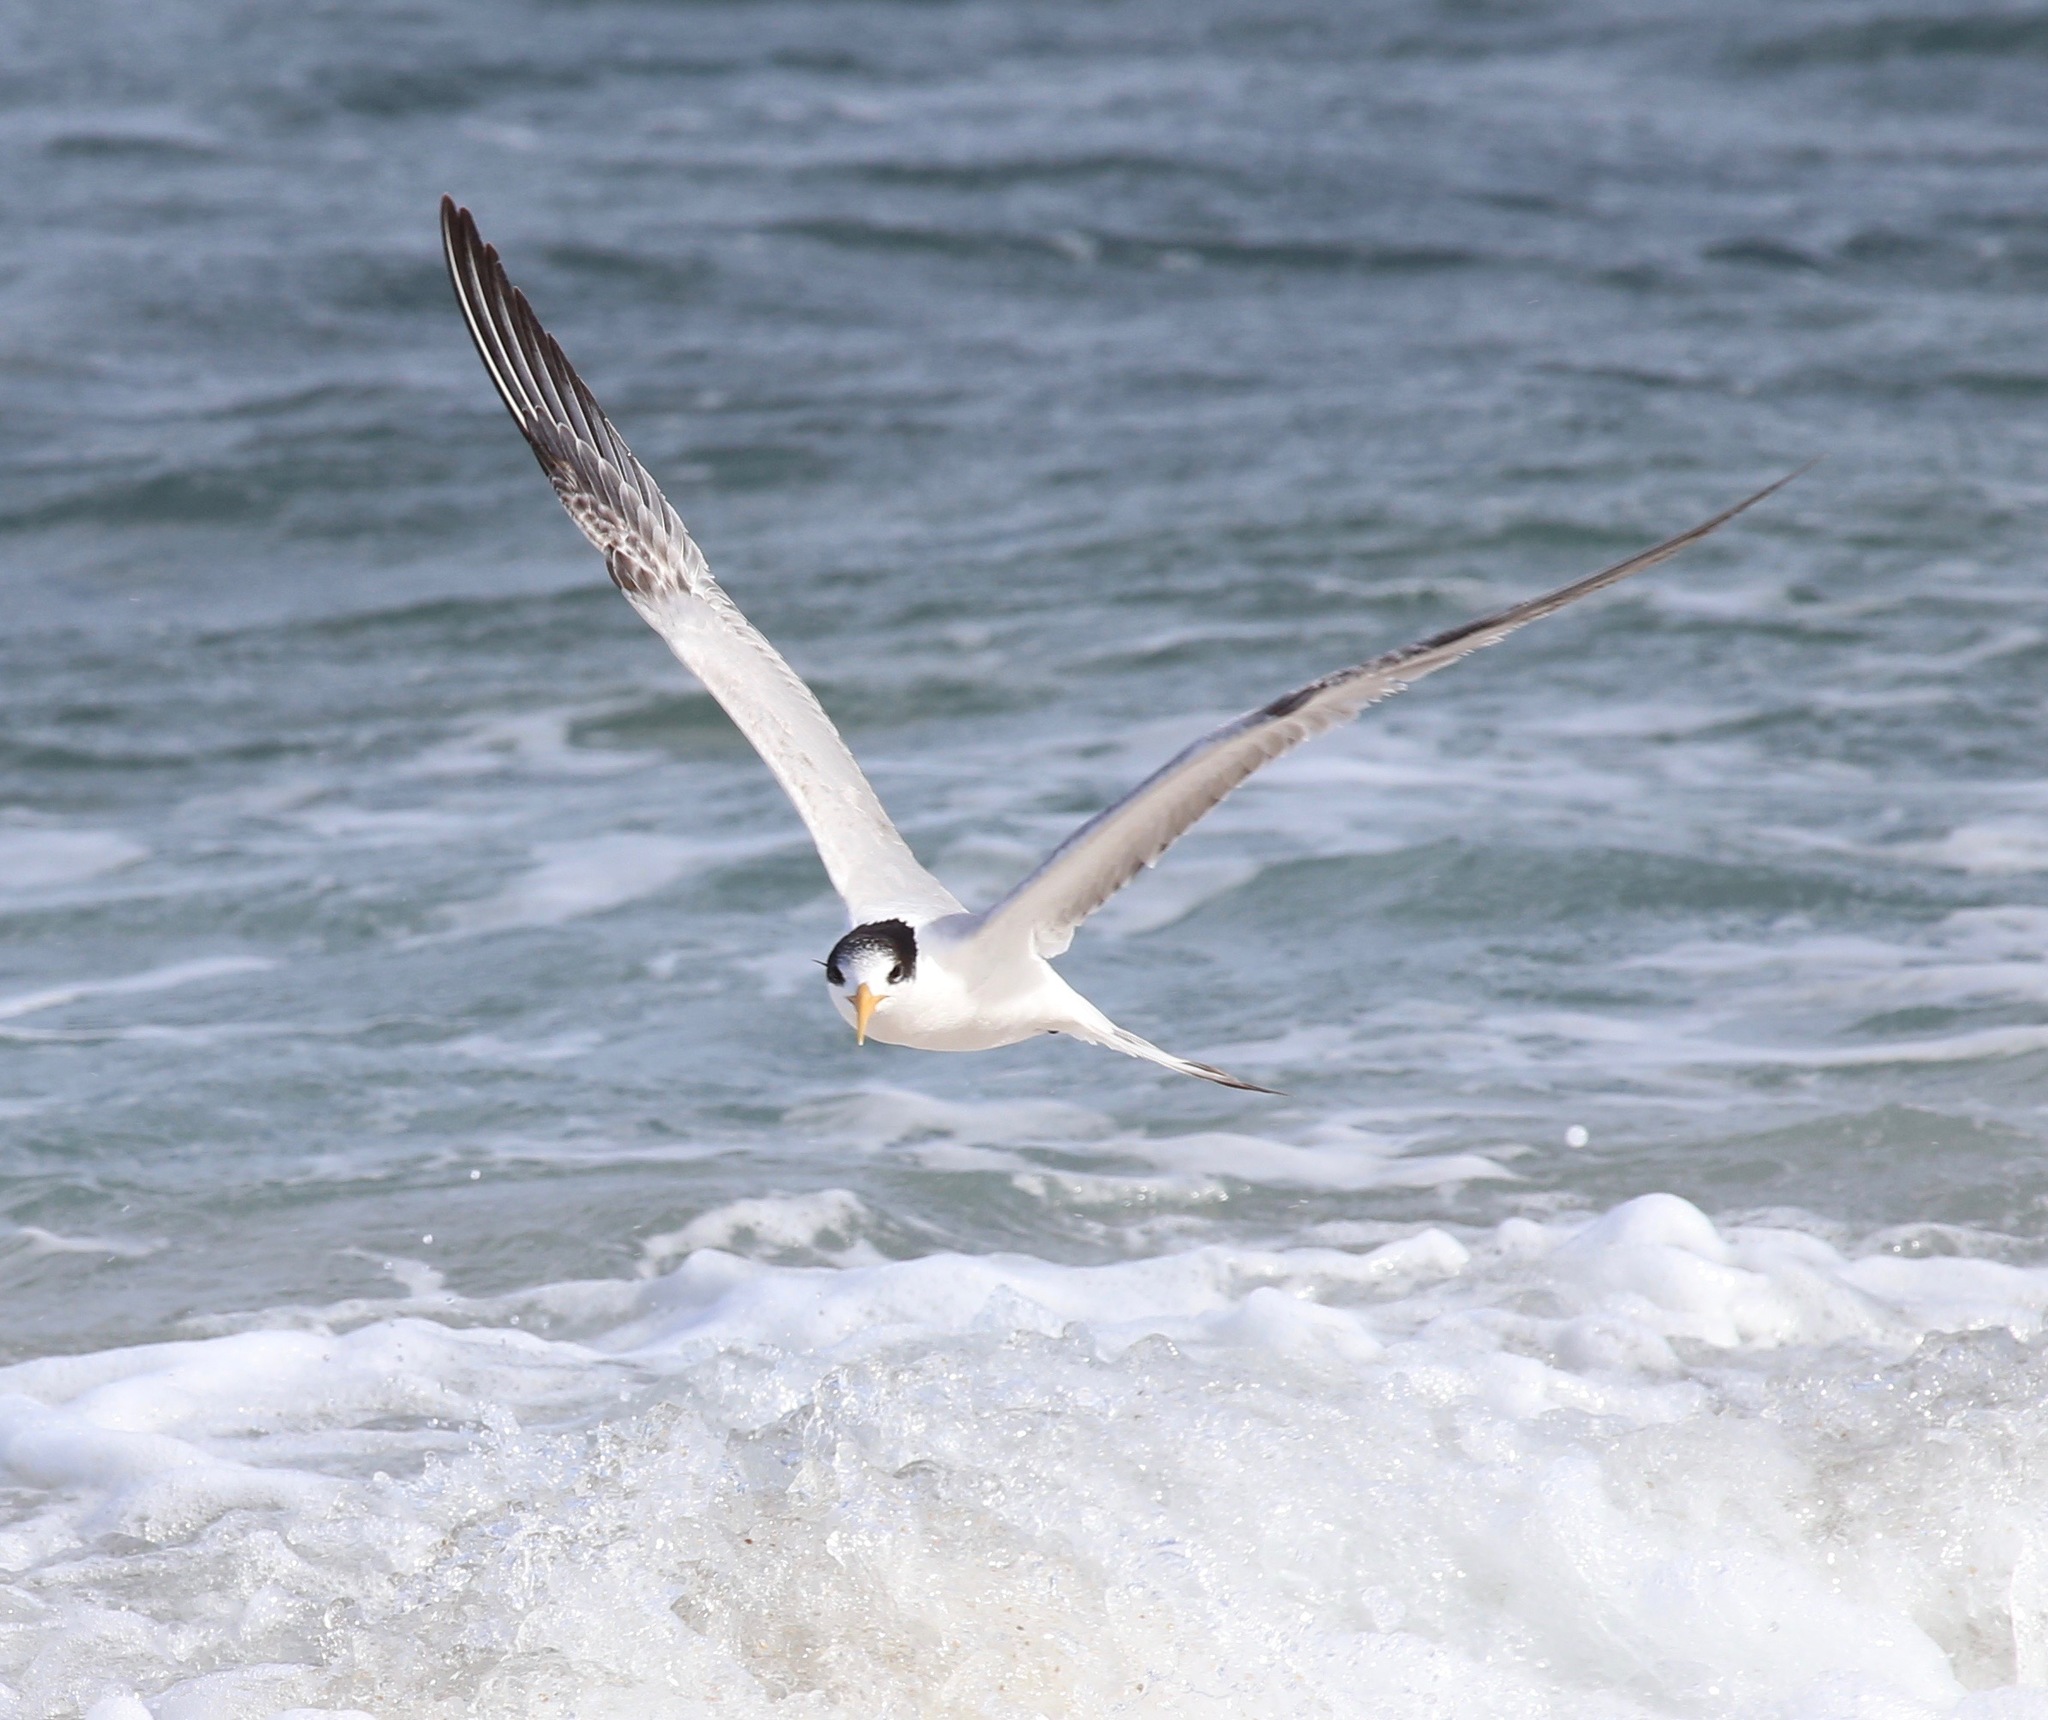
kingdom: Animalia
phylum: Chordata
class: Aves
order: Charadriiformes
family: Laridae
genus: Thalasseus
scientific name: Thalasseus elegans
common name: Elegant tern
